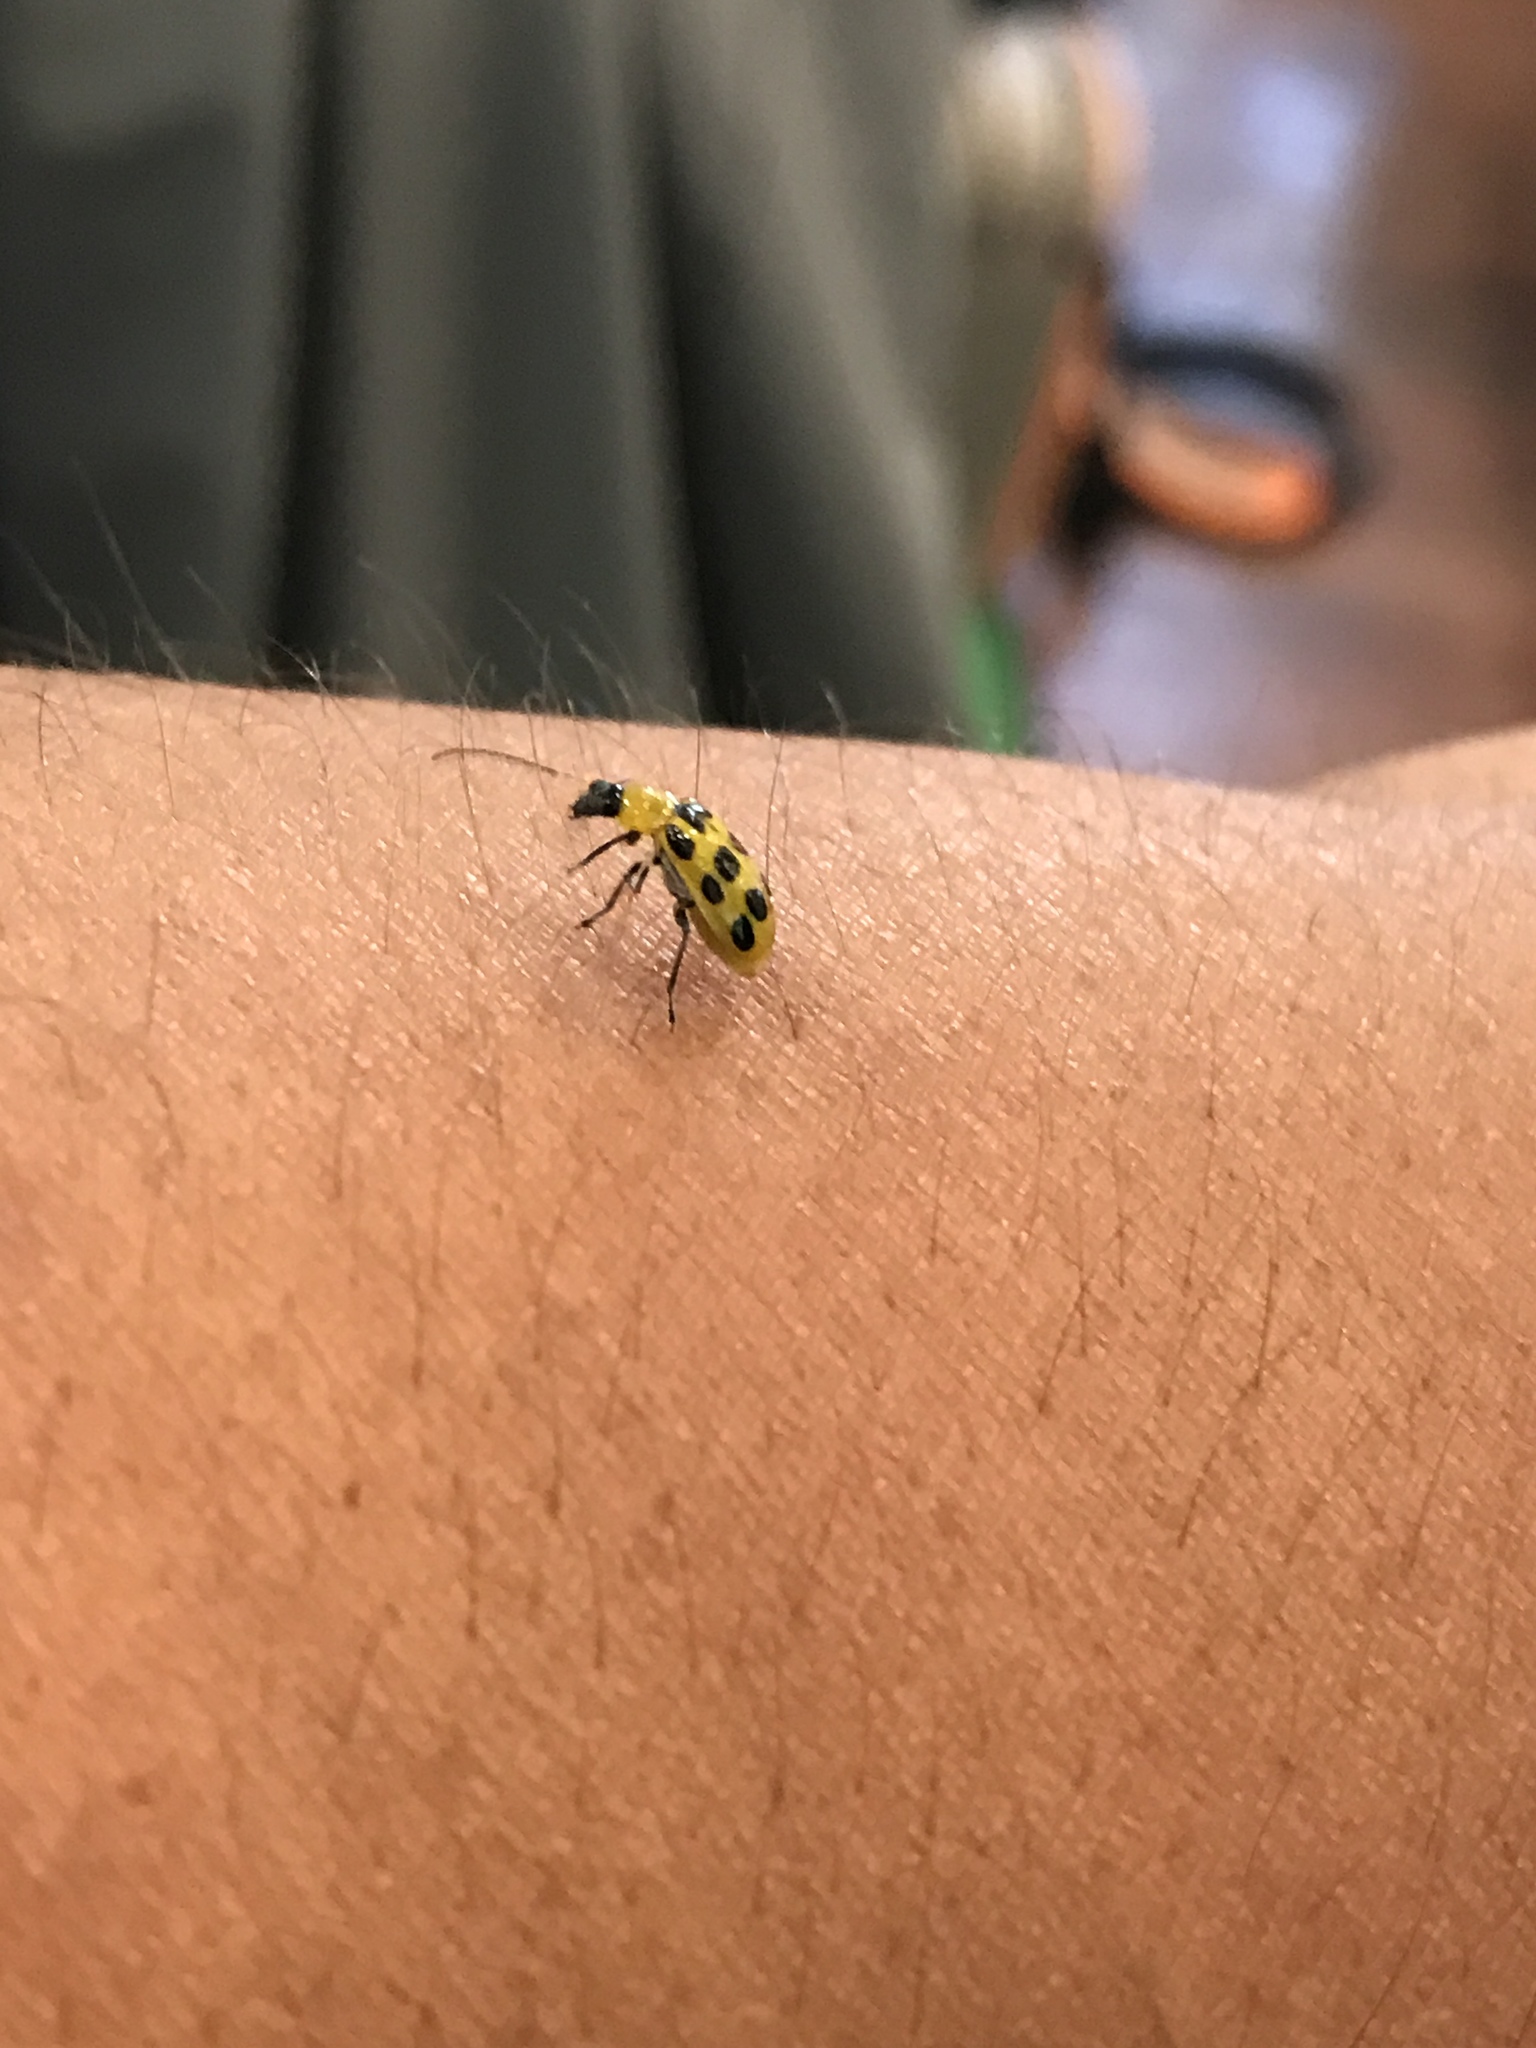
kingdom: Animalia
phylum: Arthropoda
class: Insecta
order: Coleoptera
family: Chrysomelidae
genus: Diabrotica
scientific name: Diabrotica undecimpunctata
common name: Spotted cucumber beetle
